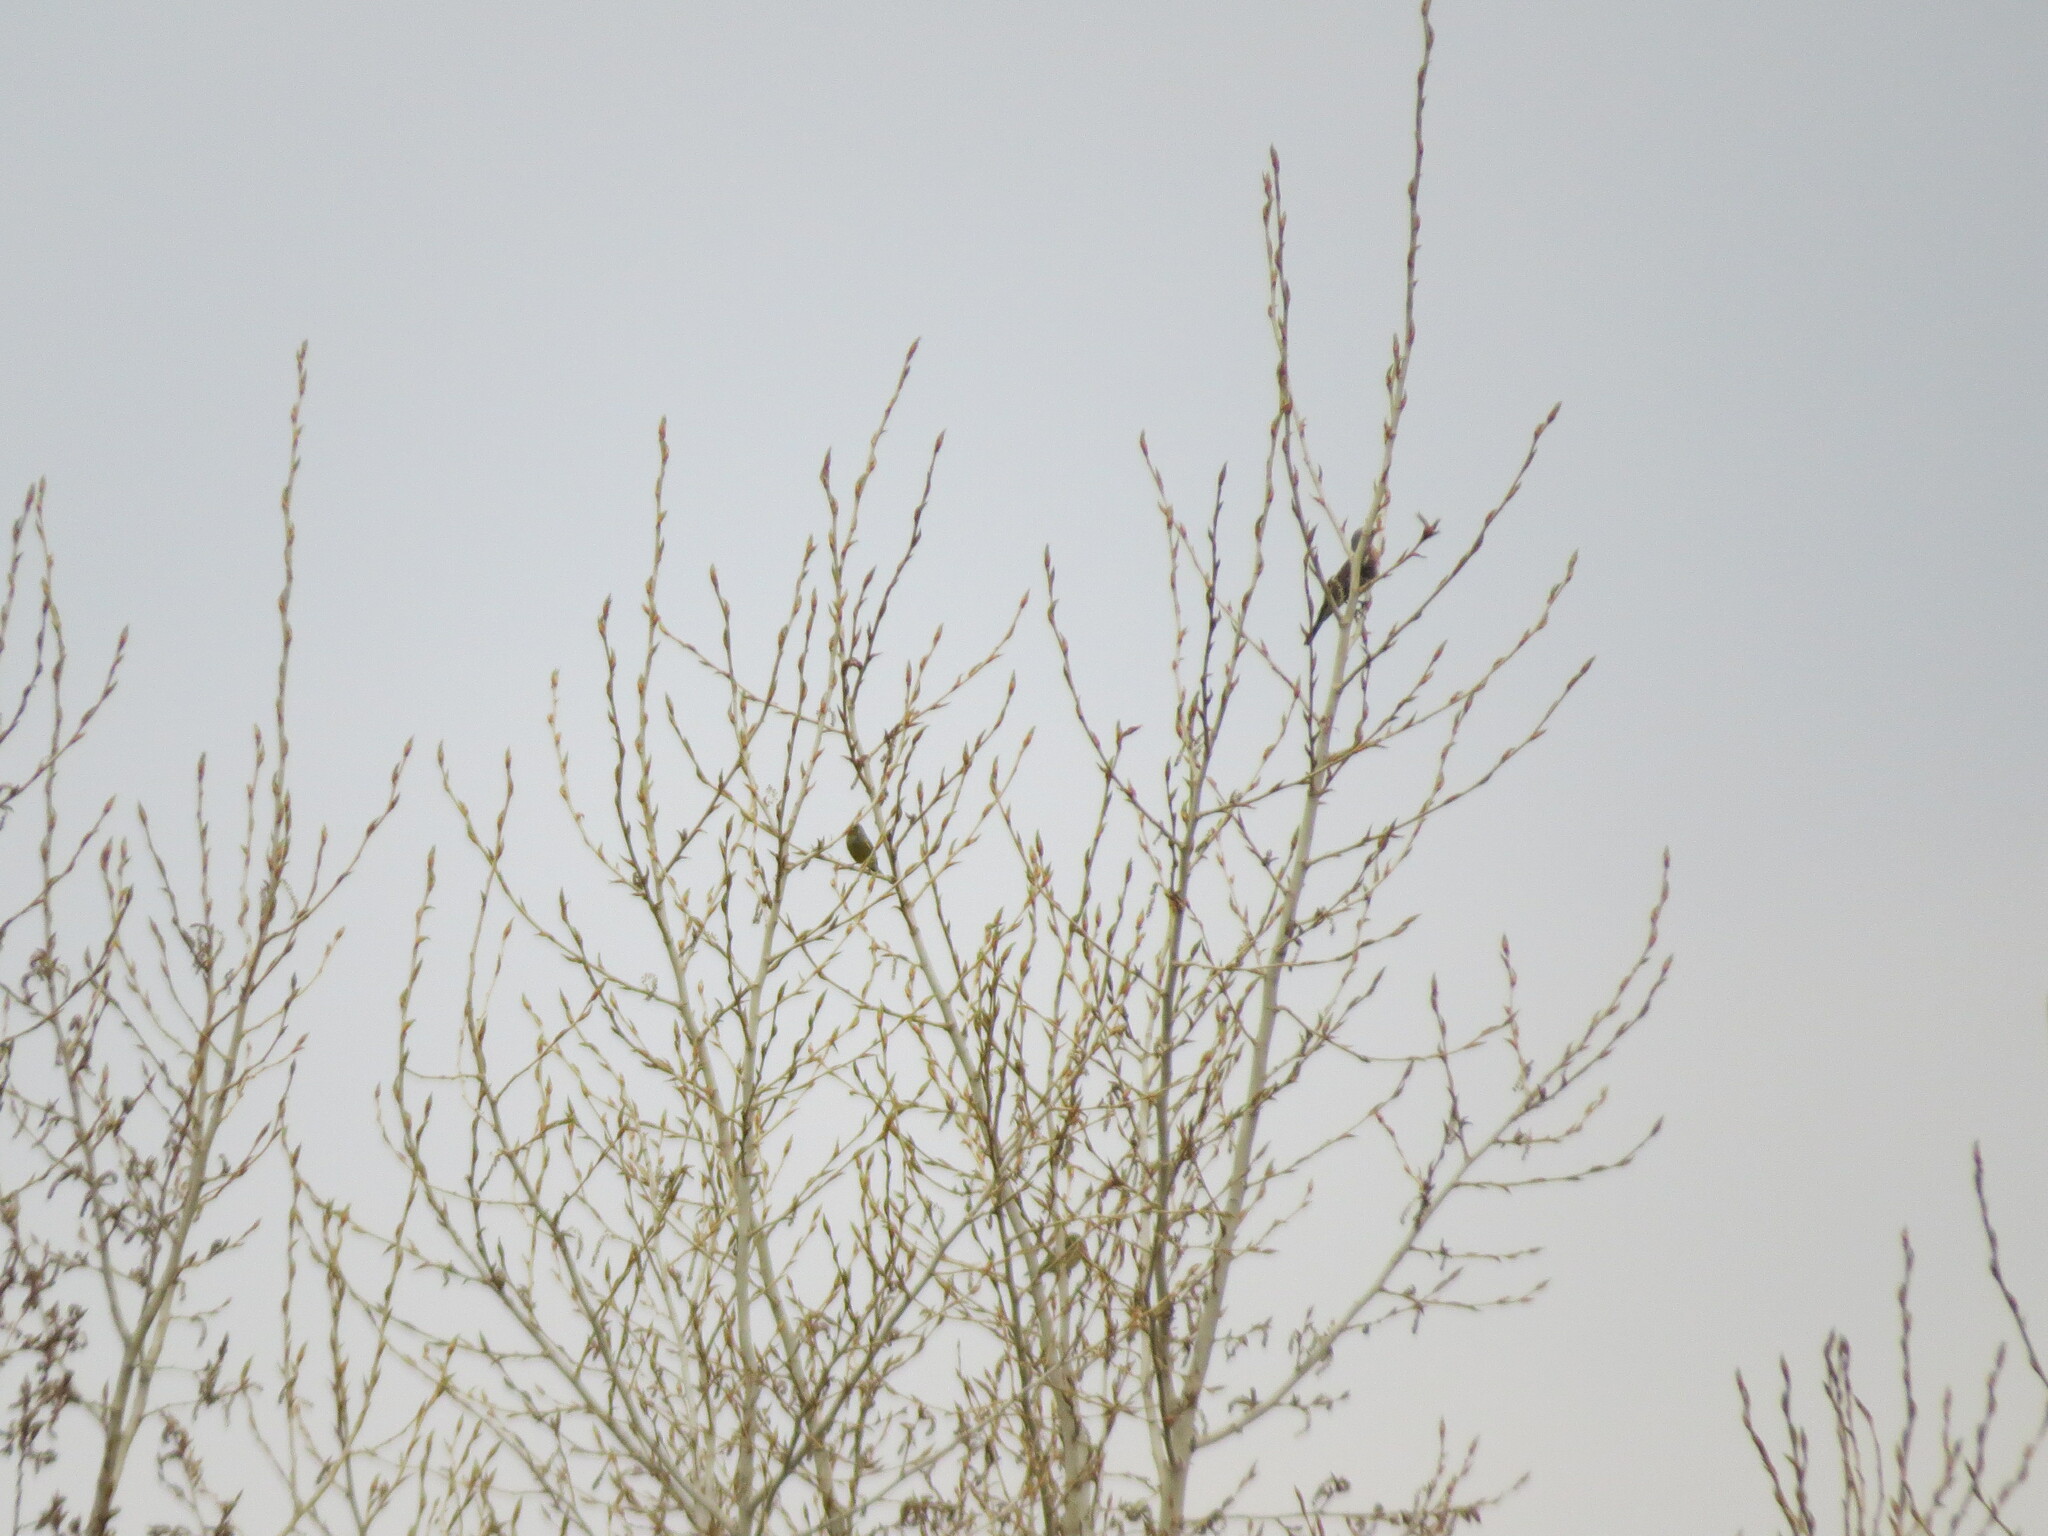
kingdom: Animalia
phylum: Chordata
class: Aves
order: Passeriformes
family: Turdidae
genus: Turdus
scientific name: Turdus pilaris
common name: Fieldfare
